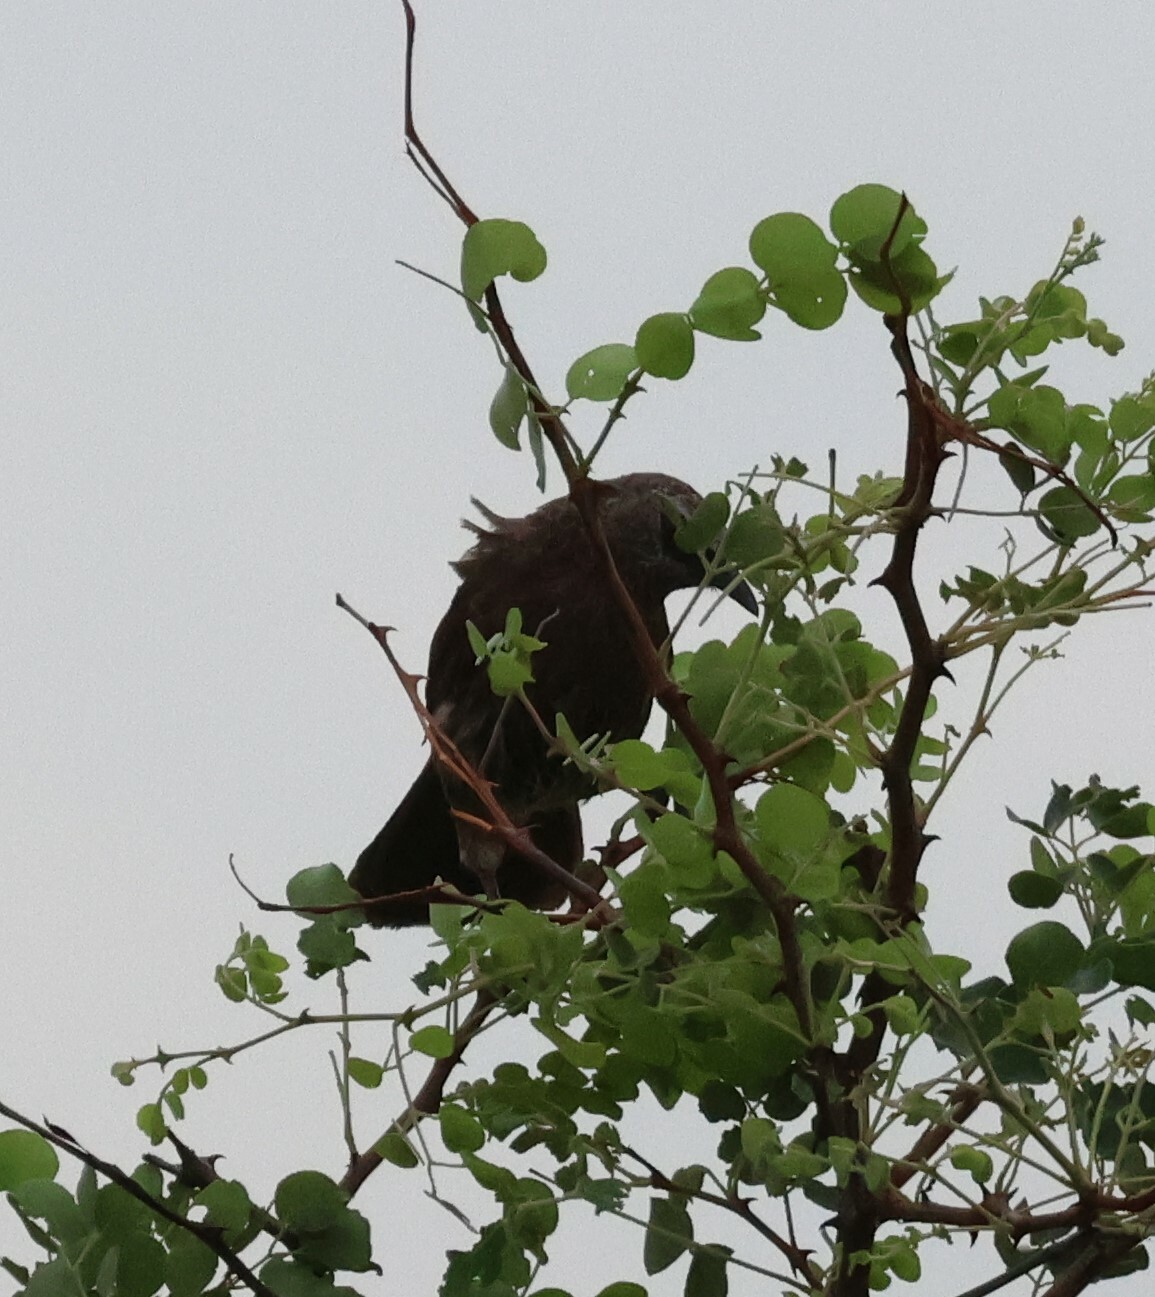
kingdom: Animalia
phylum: Chordata
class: Aves
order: Passeriformes
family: Leiothrichidae
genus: Turdoides
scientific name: Turdoides hartlaubii
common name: Hartlaub's babbler
